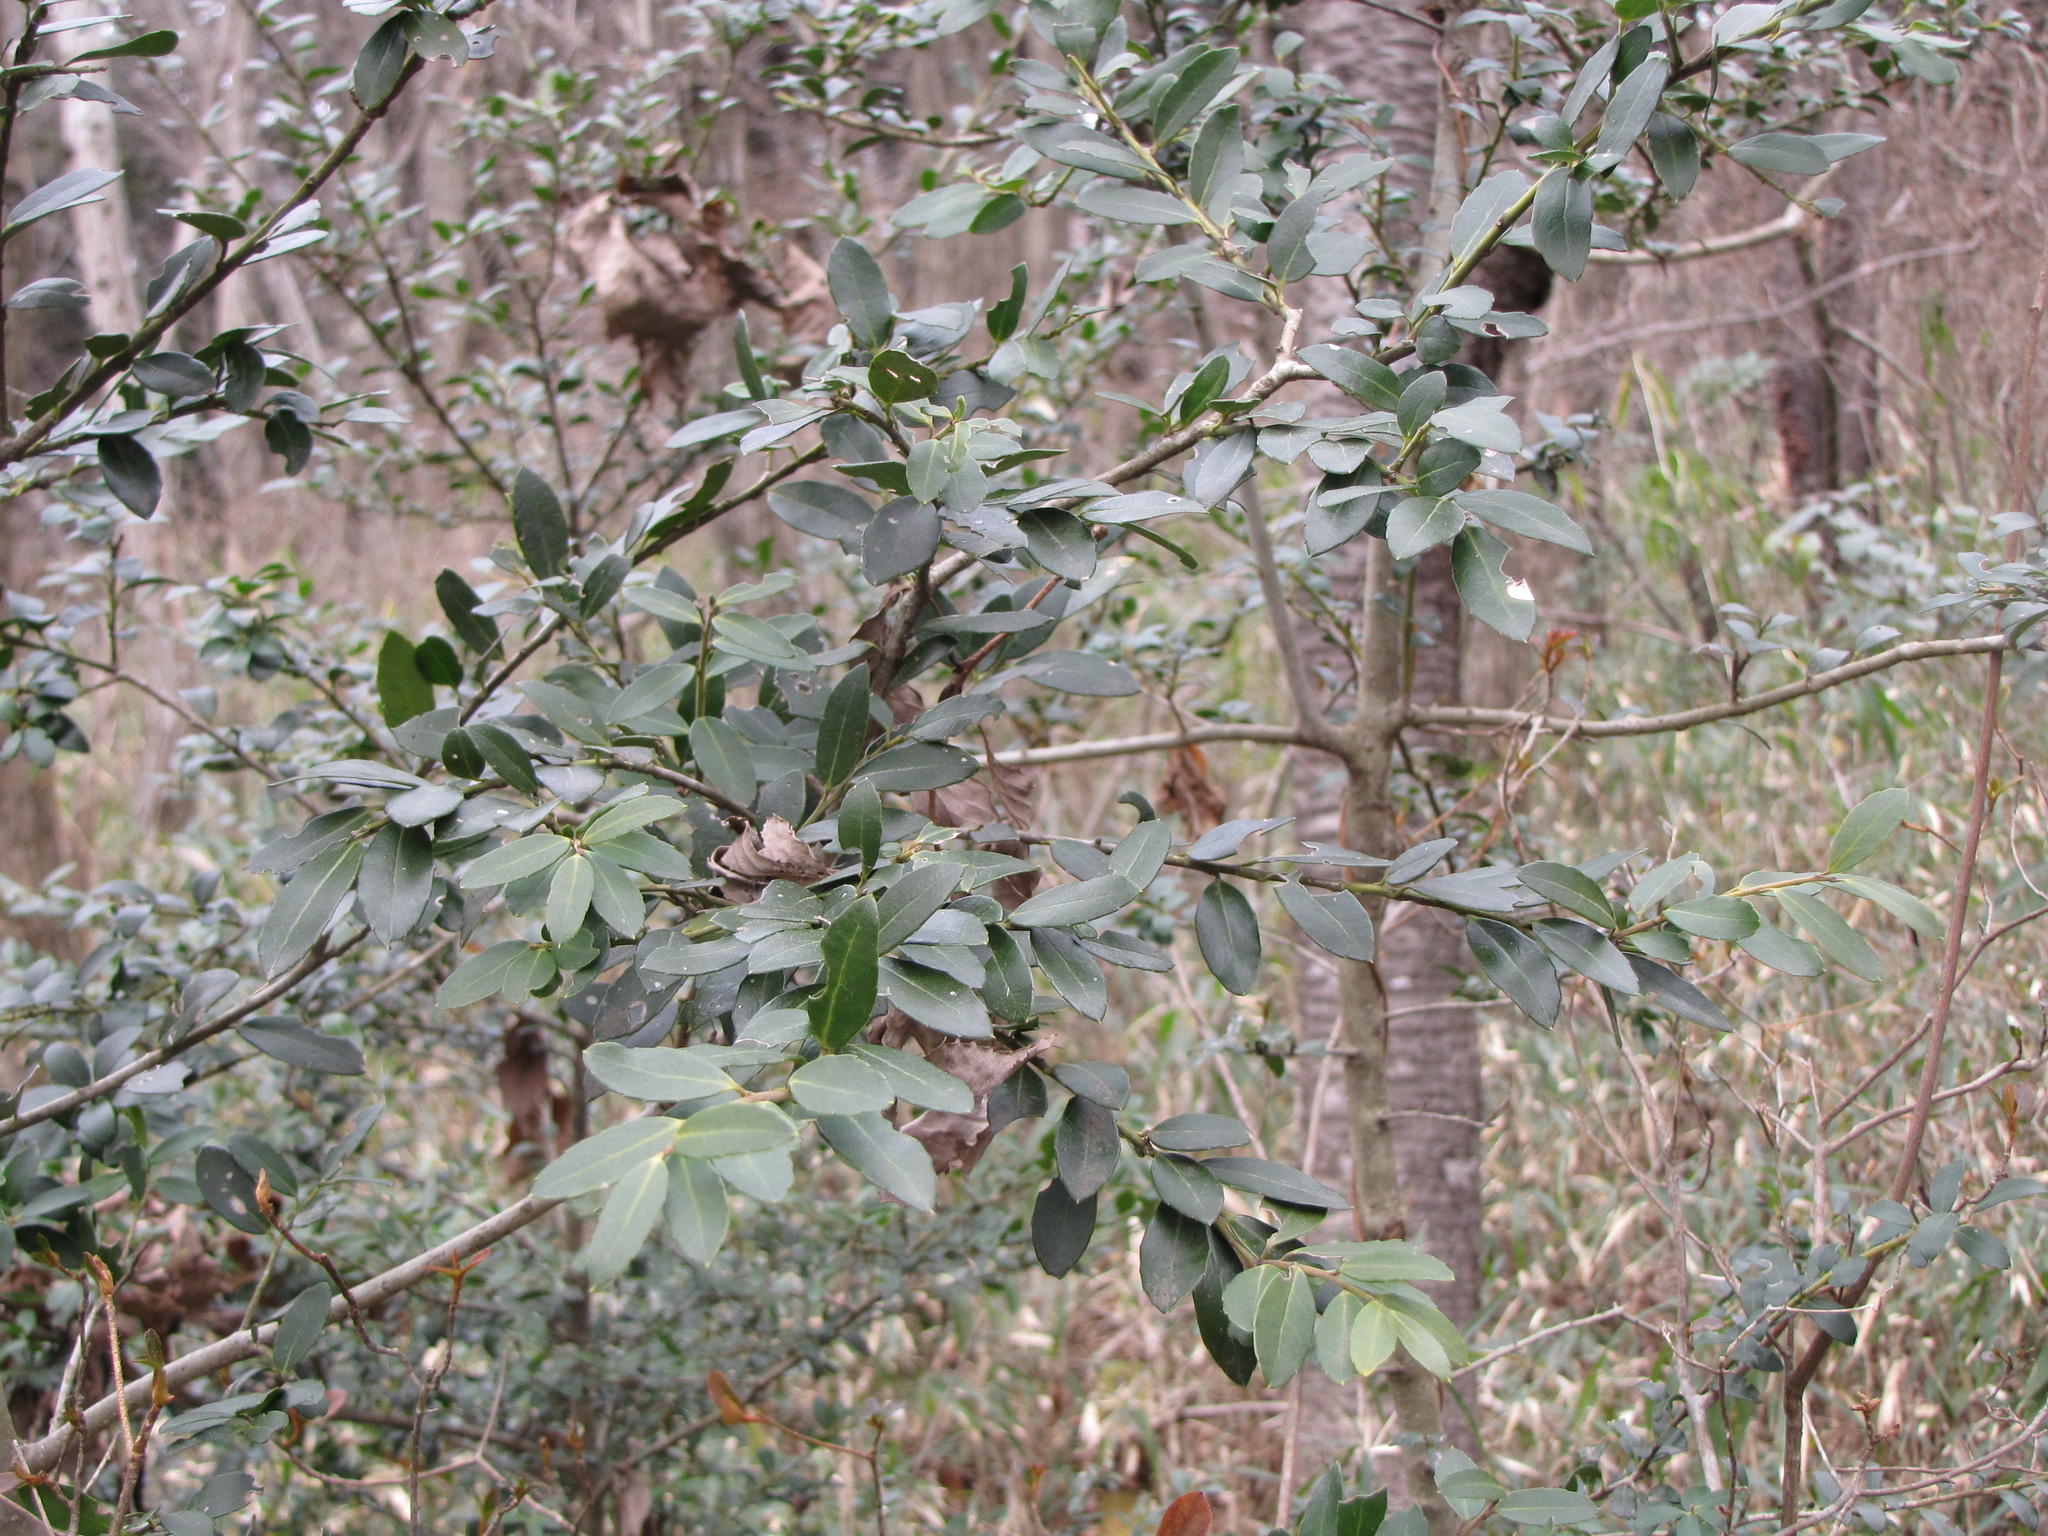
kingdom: Plantae
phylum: Tracheophyta
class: Magnoliopsida
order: Aquifoliales
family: Aquifoliaceae
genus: Ilex
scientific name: Ilex crenata
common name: Japanese holly
